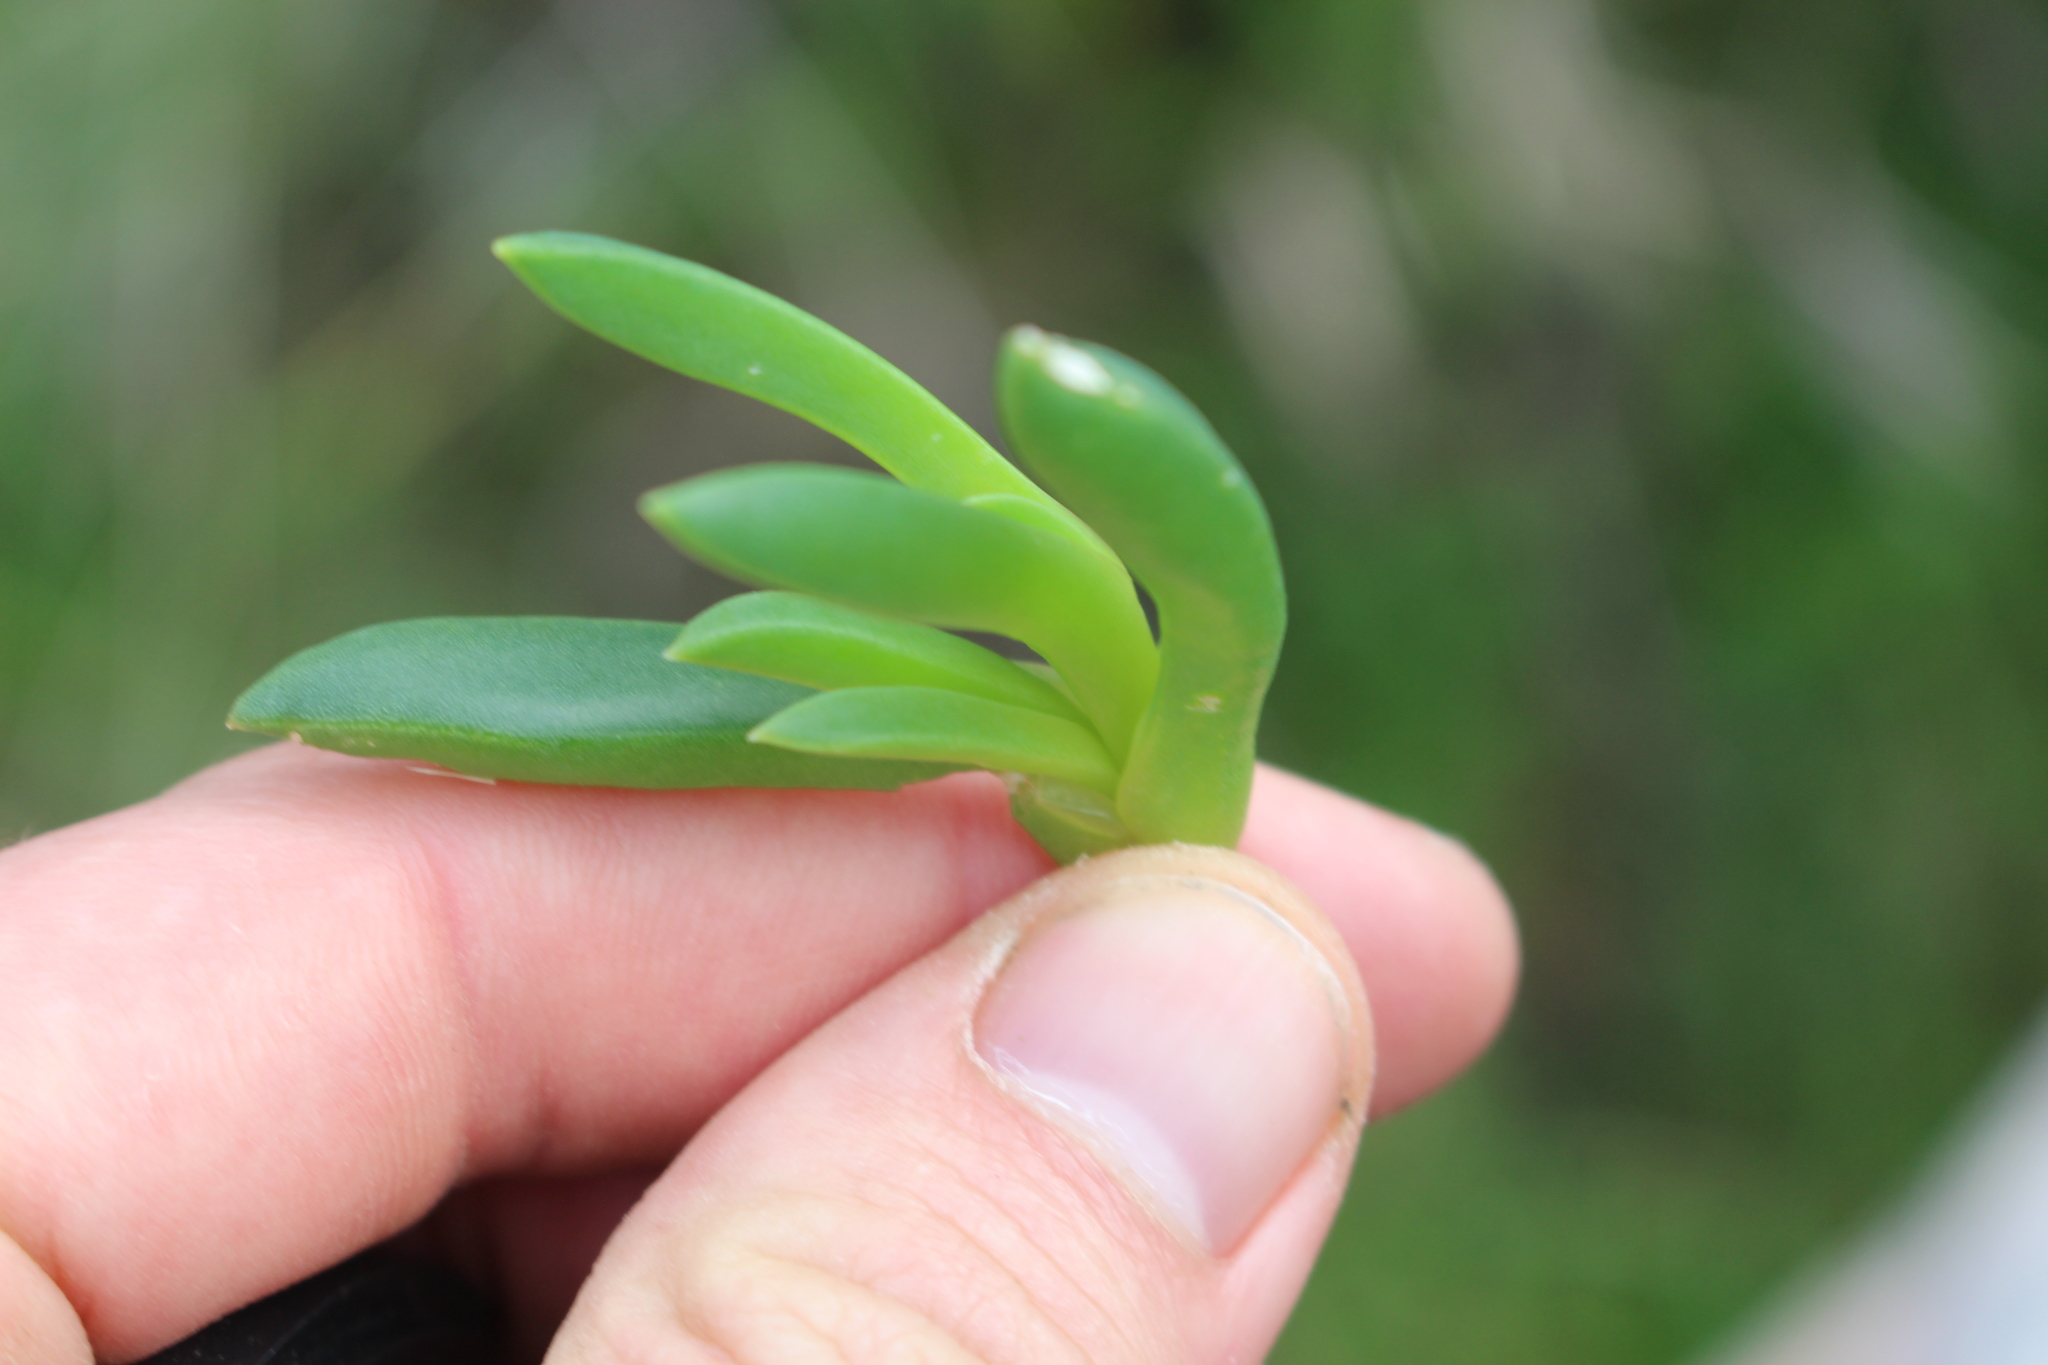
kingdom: Plantae
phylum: Tracheophyta
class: Magnoliopsida
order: Caryophyllales
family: Aizoaceae
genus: Disphyma
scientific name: Disphyma australe
